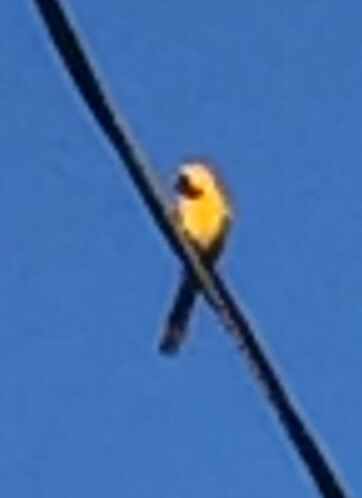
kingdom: Animalia
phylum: Chordata
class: Aves
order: Passeriformes
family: Icteridae
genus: Icterus
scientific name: Icterus cucullatus
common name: Hooded oriole
